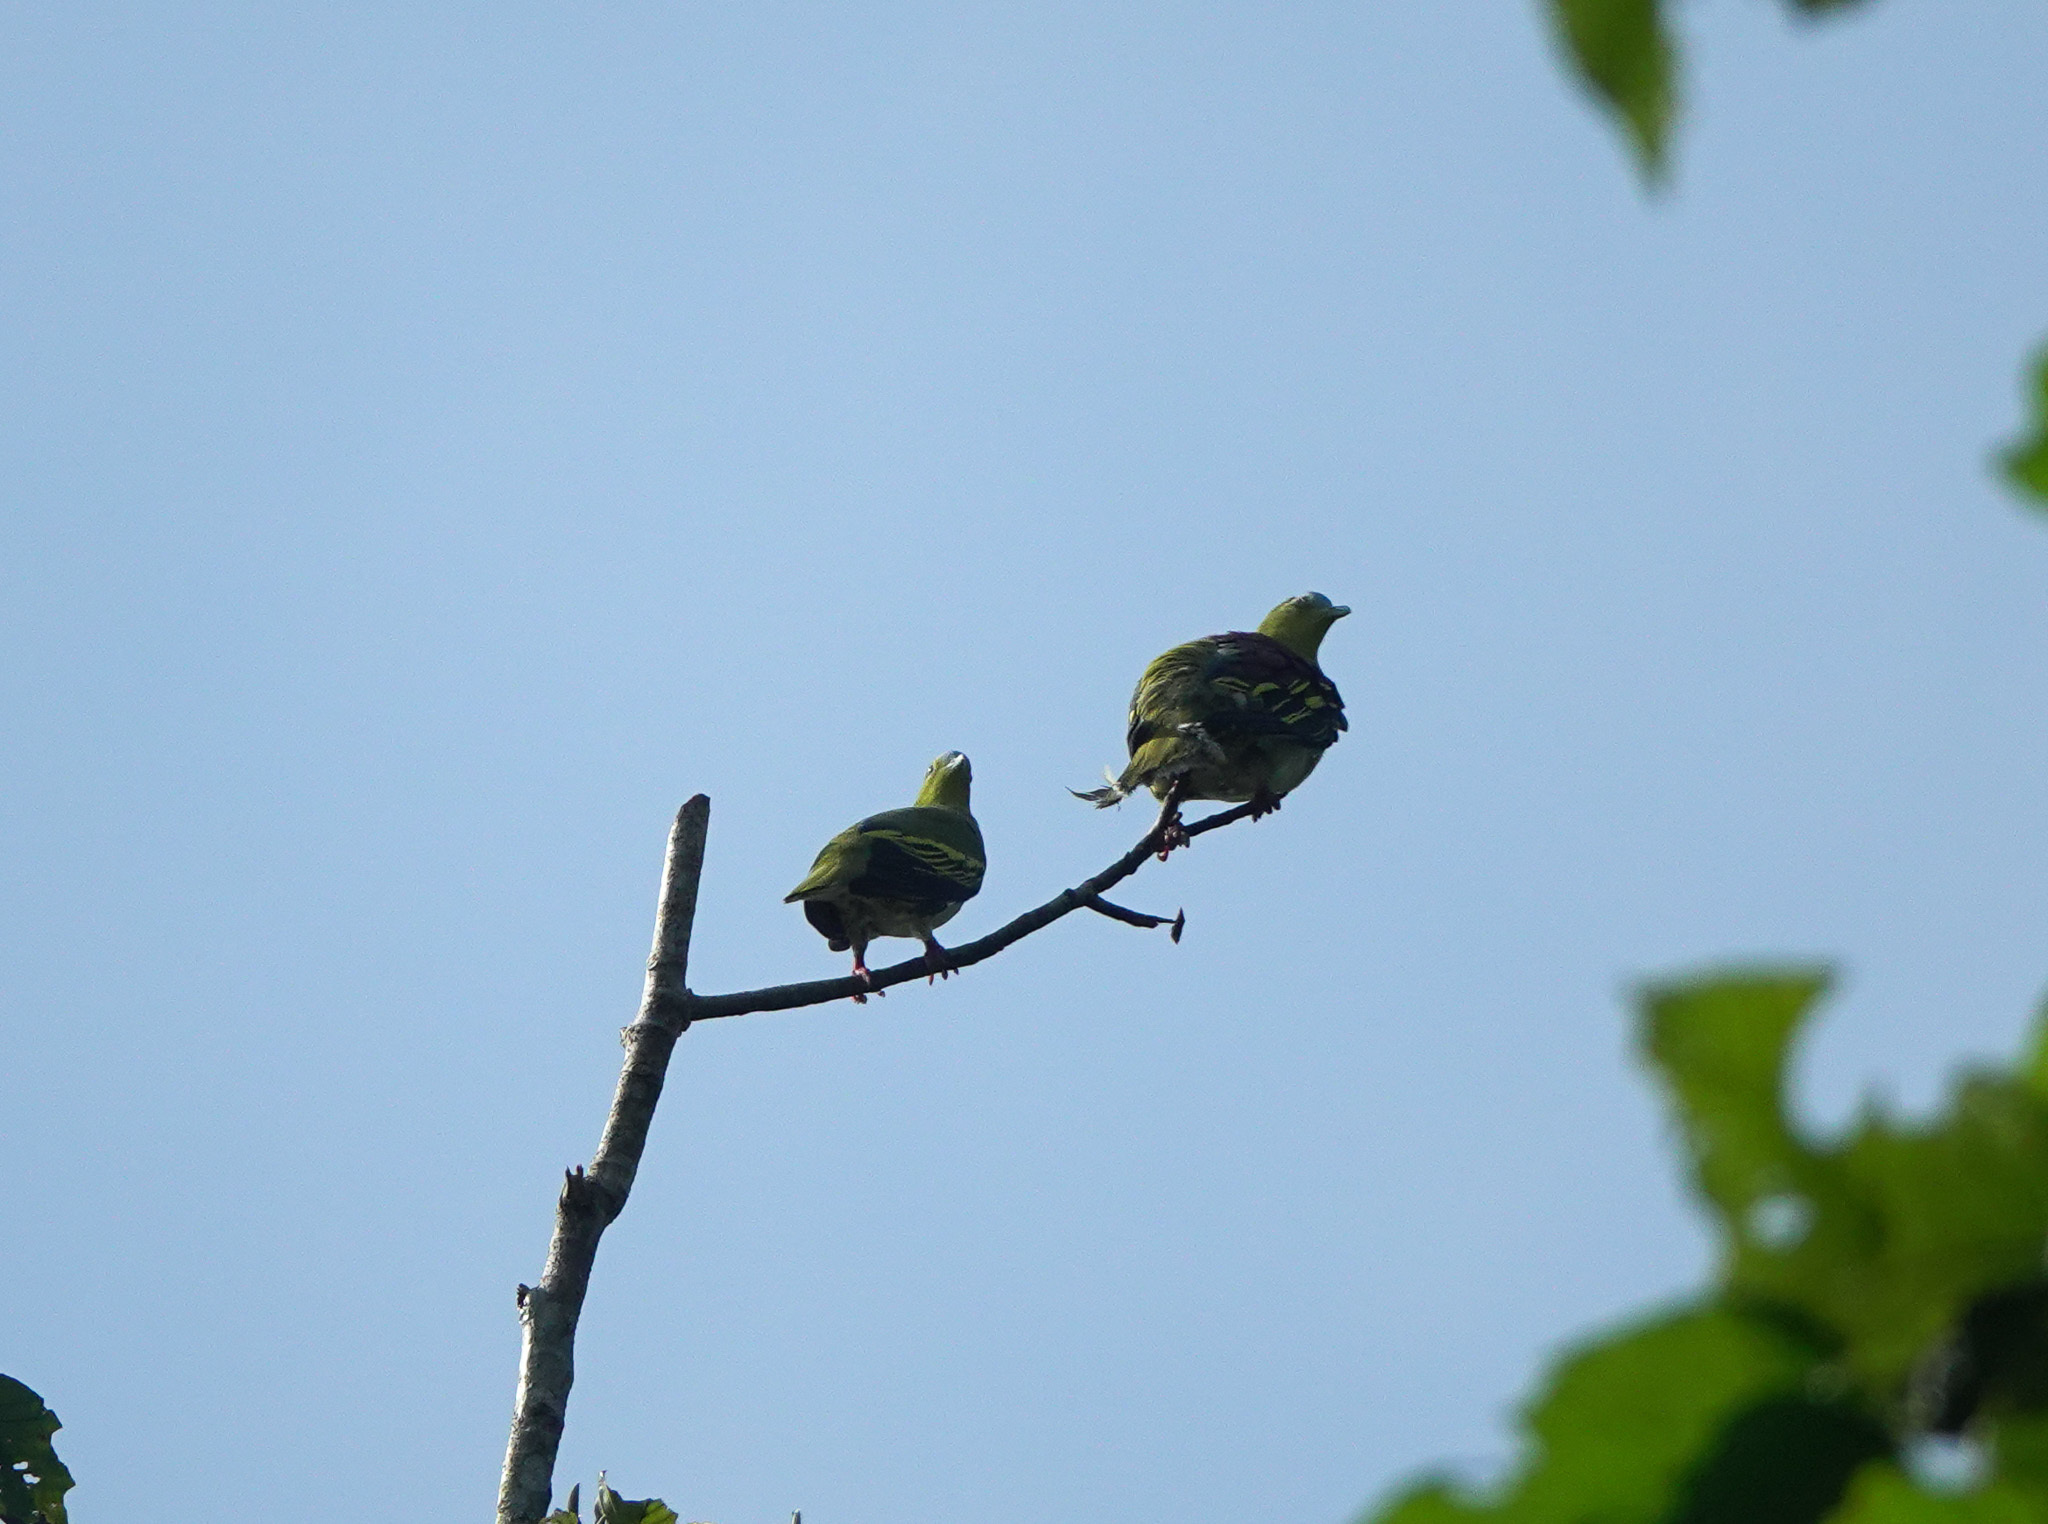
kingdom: Animalia
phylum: Chordata
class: Aves
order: Columbiformes
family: Columbidae
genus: Treron
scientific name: Treron phayrei
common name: Ashy-headed green pigeon
